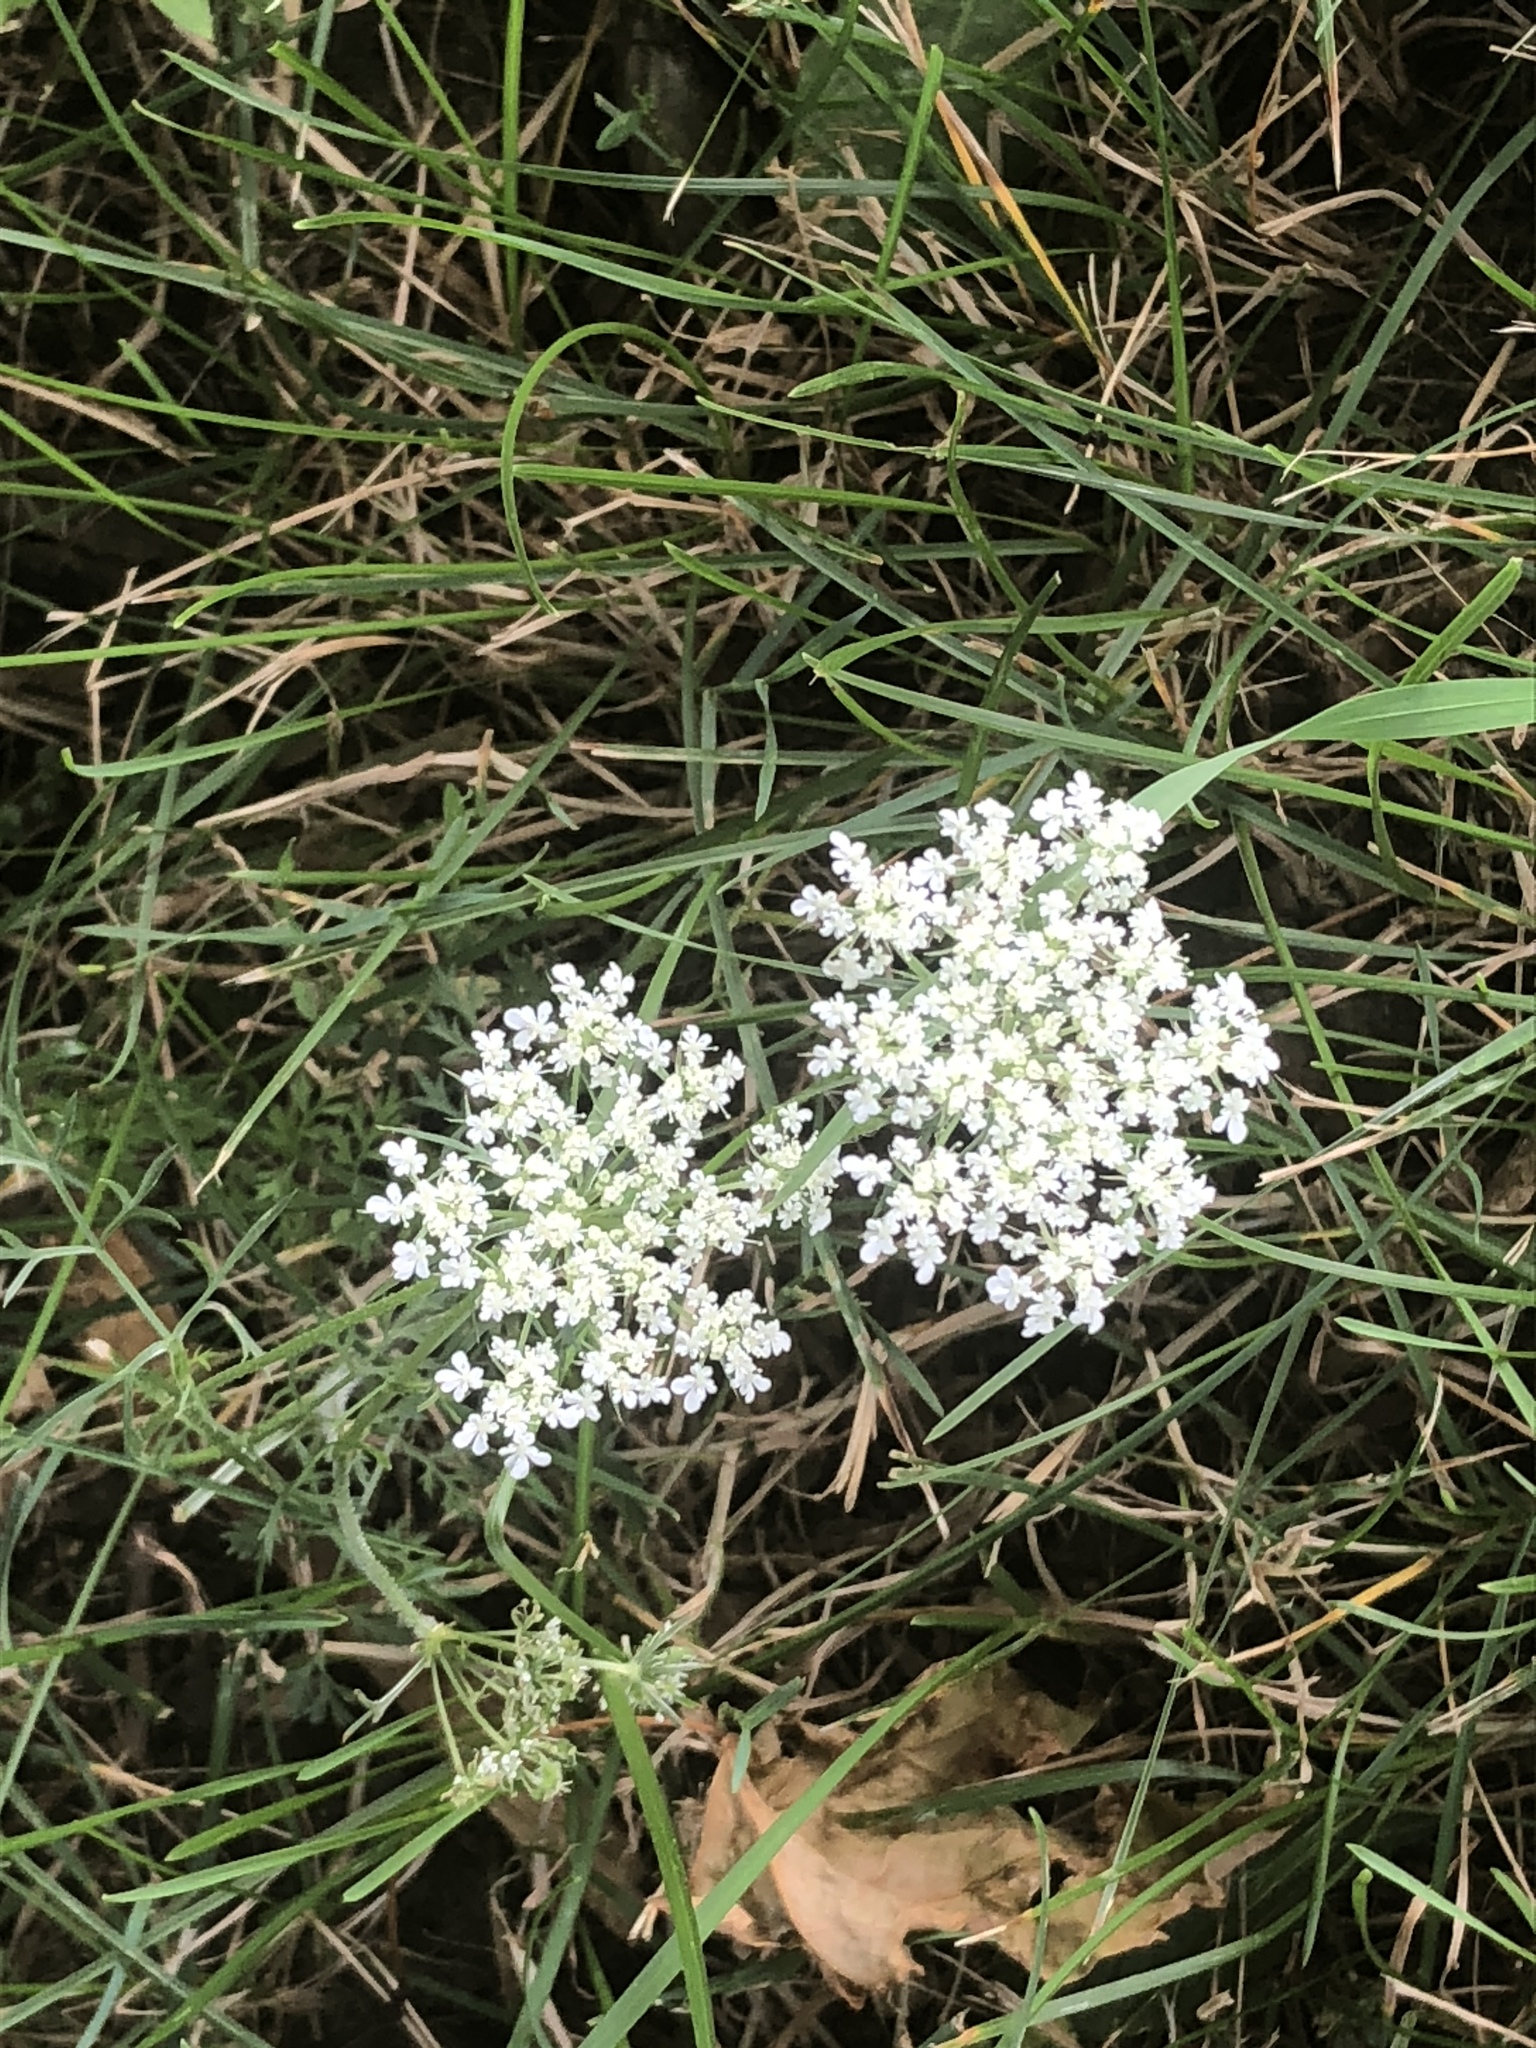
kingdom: Plantae
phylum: Tracheophyta
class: Magnoliopsida
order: Apiales
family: Apiaceae
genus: Daucus
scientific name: Daucus carota
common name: Wild carrot
